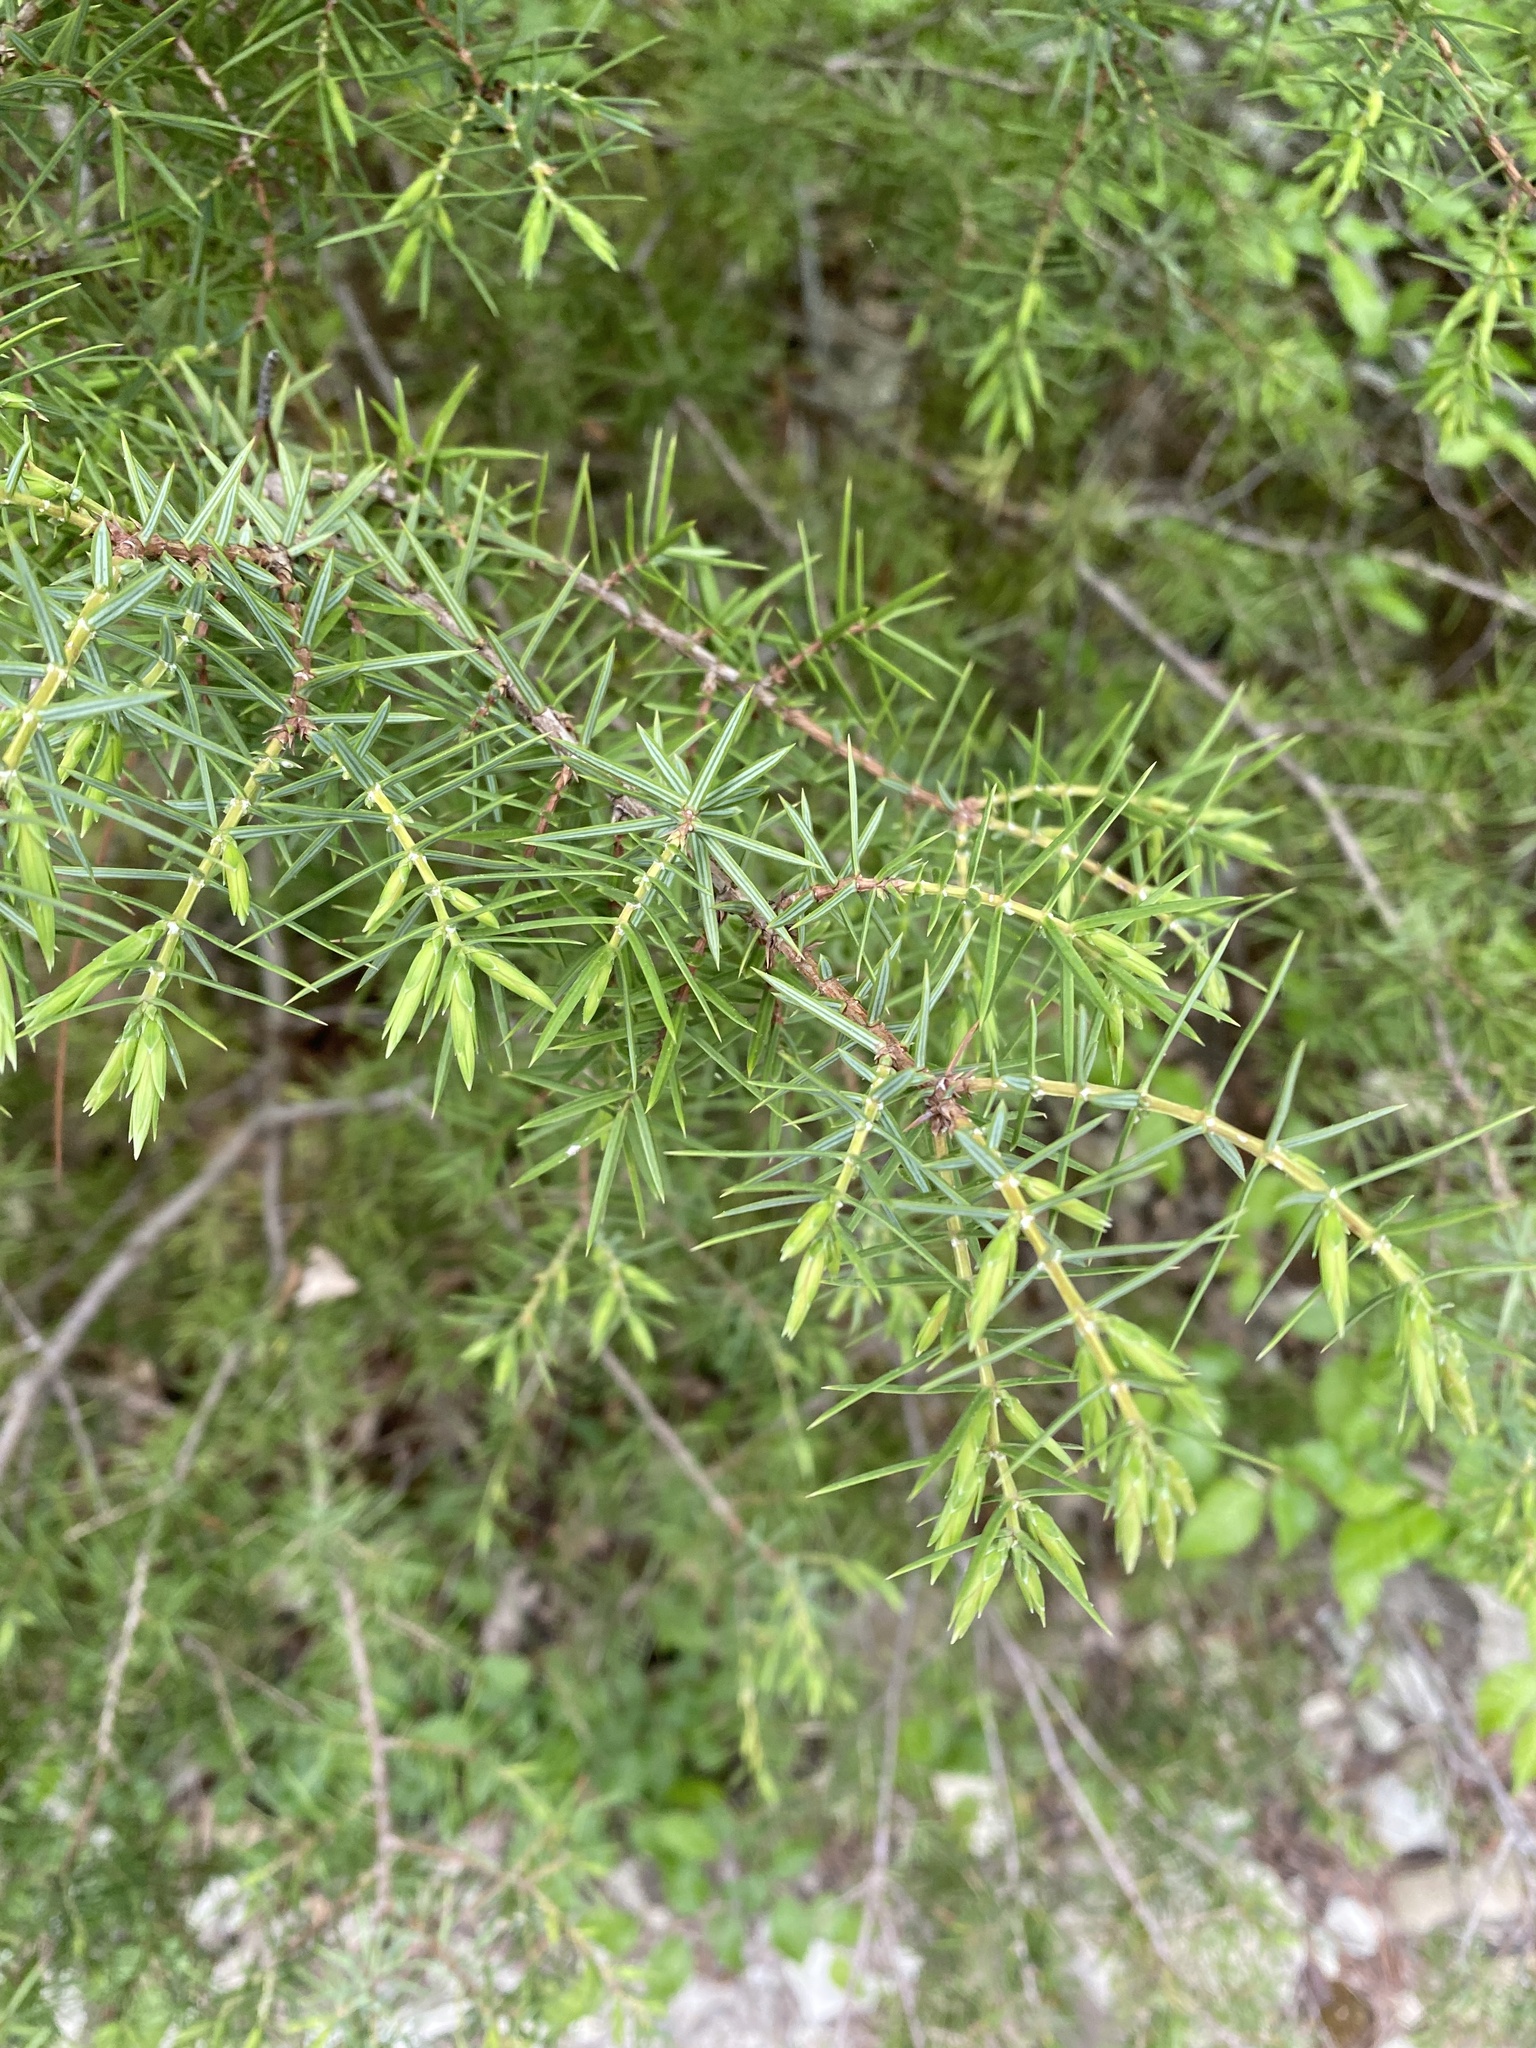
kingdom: Plantae
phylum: Tracheophyta
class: Pinopsida
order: Pinales
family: Cupressaceae
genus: Juniperus
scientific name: Juniperus oxycedrus
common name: Prickly juniper
